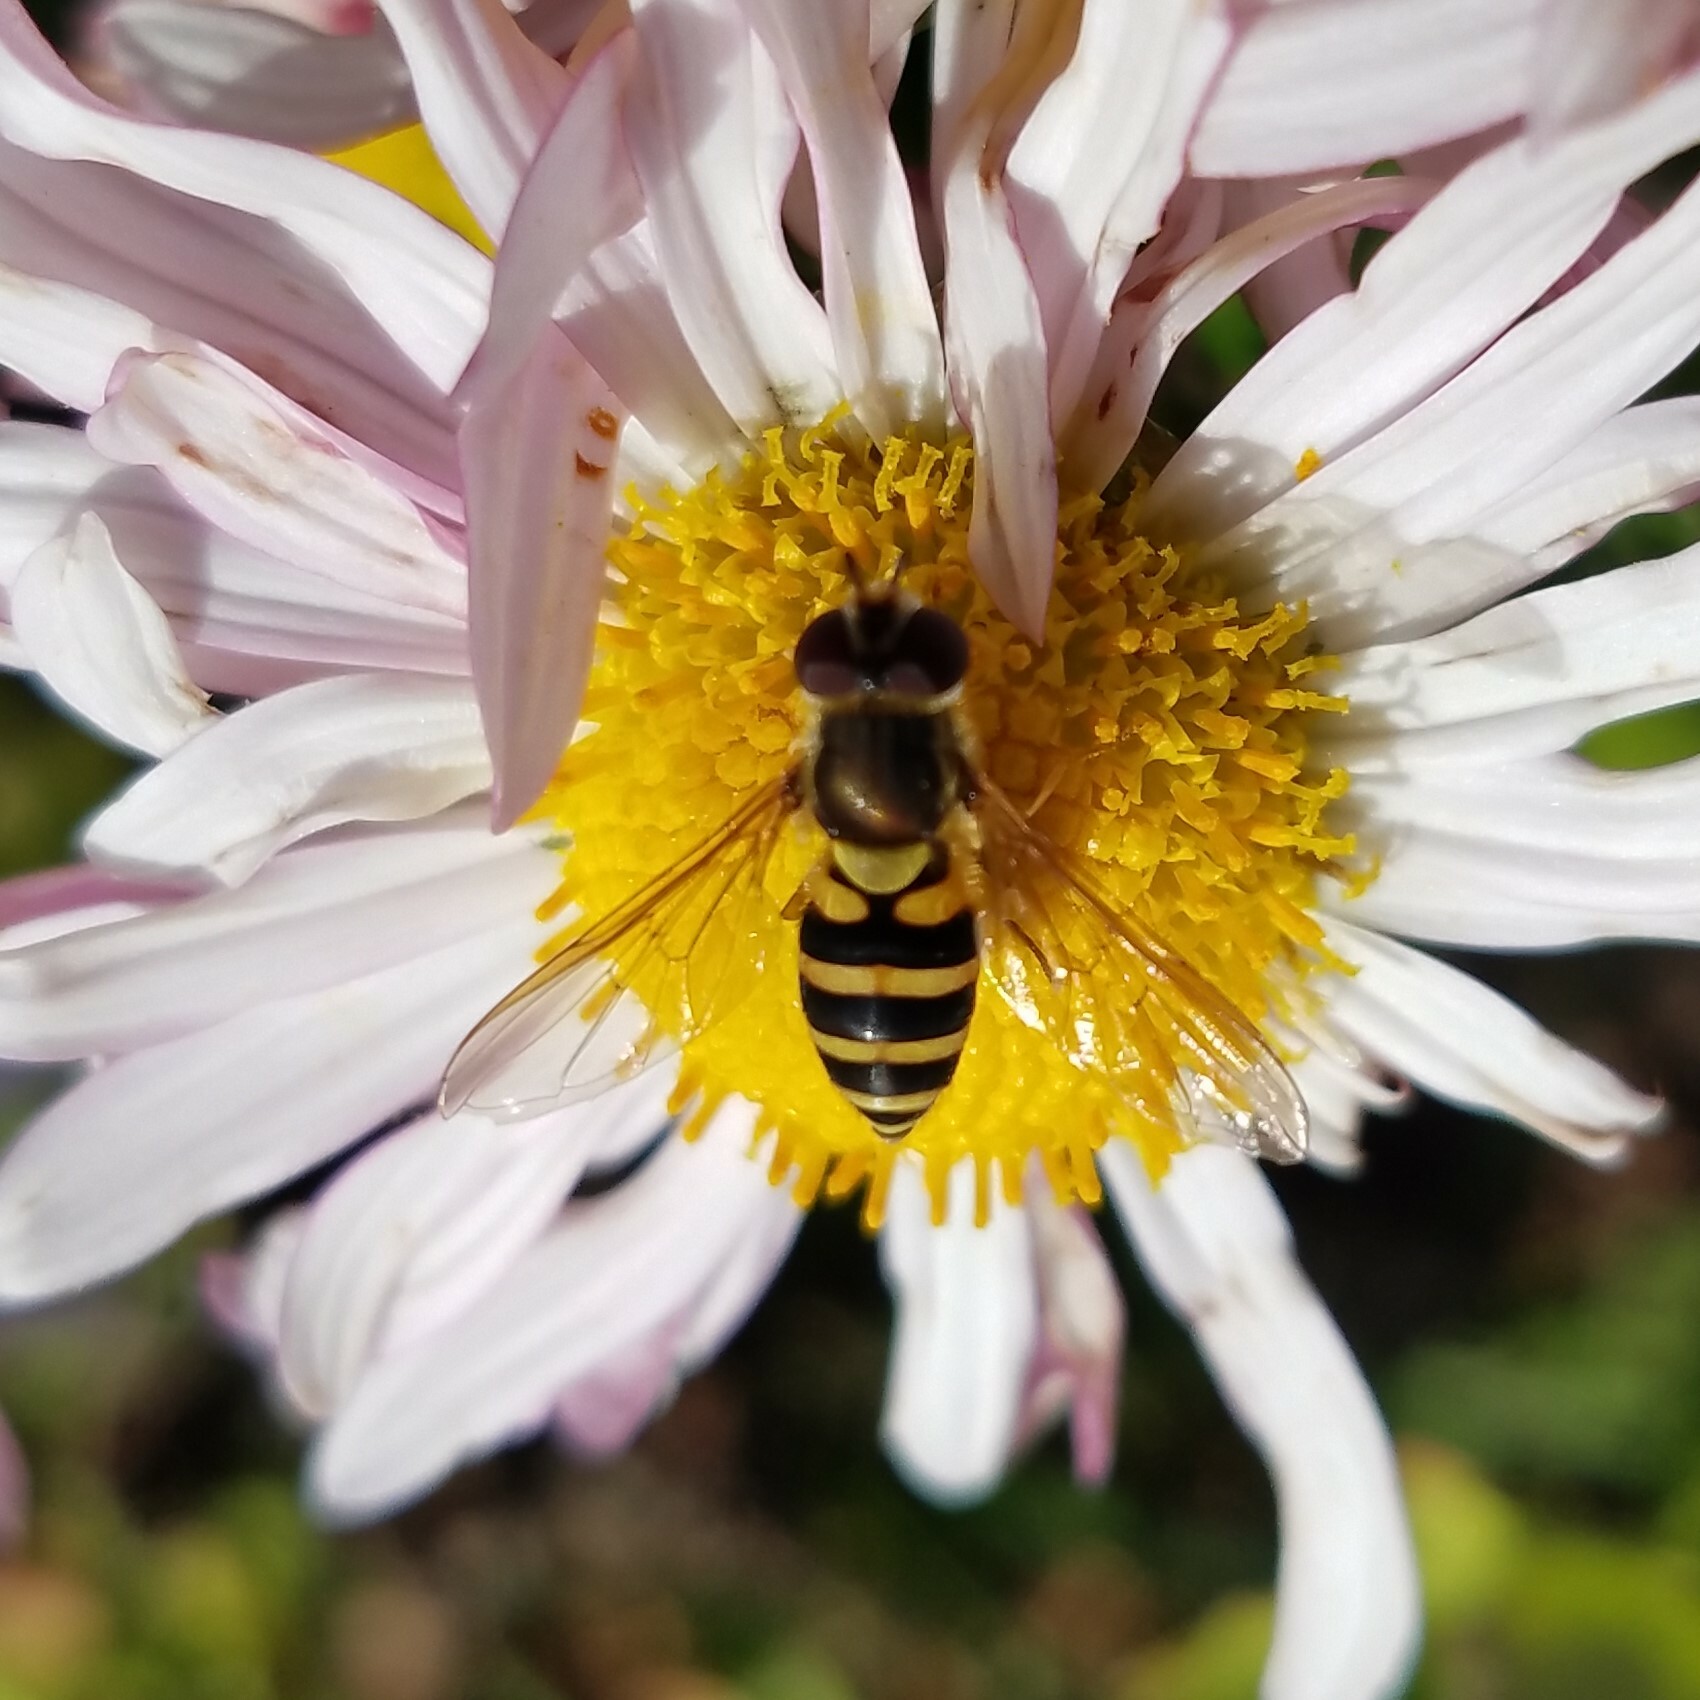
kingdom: Animalia
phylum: Arthropoda
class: Insecta
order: Diptera
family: Syrphidae
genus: Syrphus
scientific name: Syrphus
